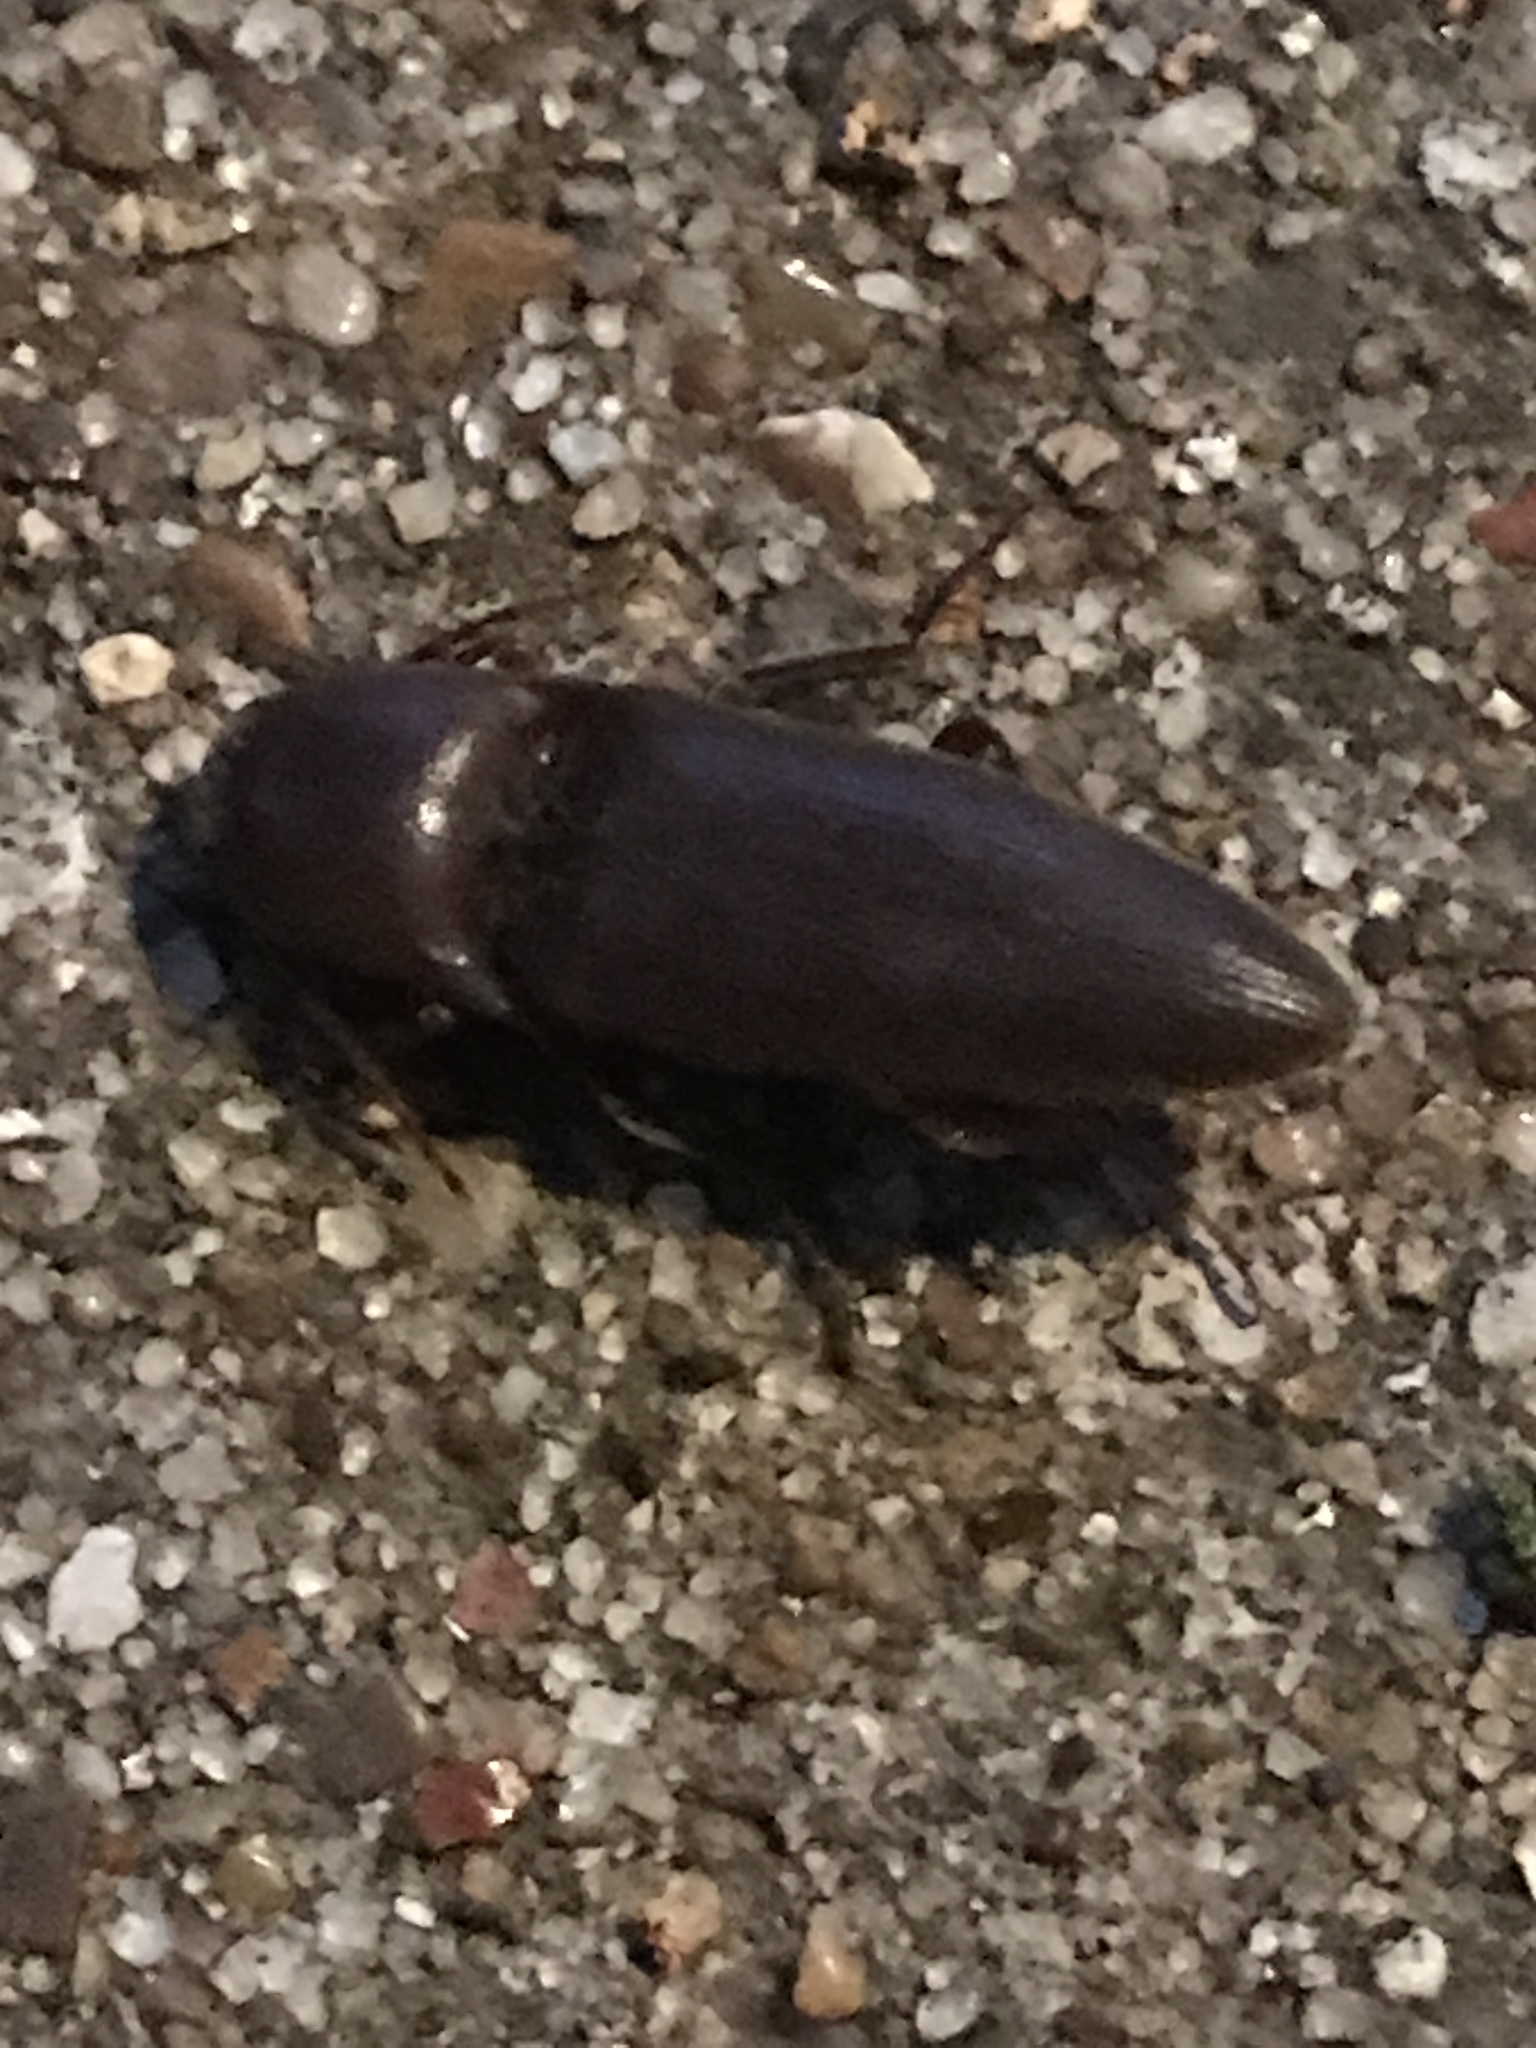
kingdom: Animalia
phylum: Arthropoda
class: Insecta
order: Coleoptera
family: Elateridae
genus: Diplostethus
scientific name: Diplostethus
